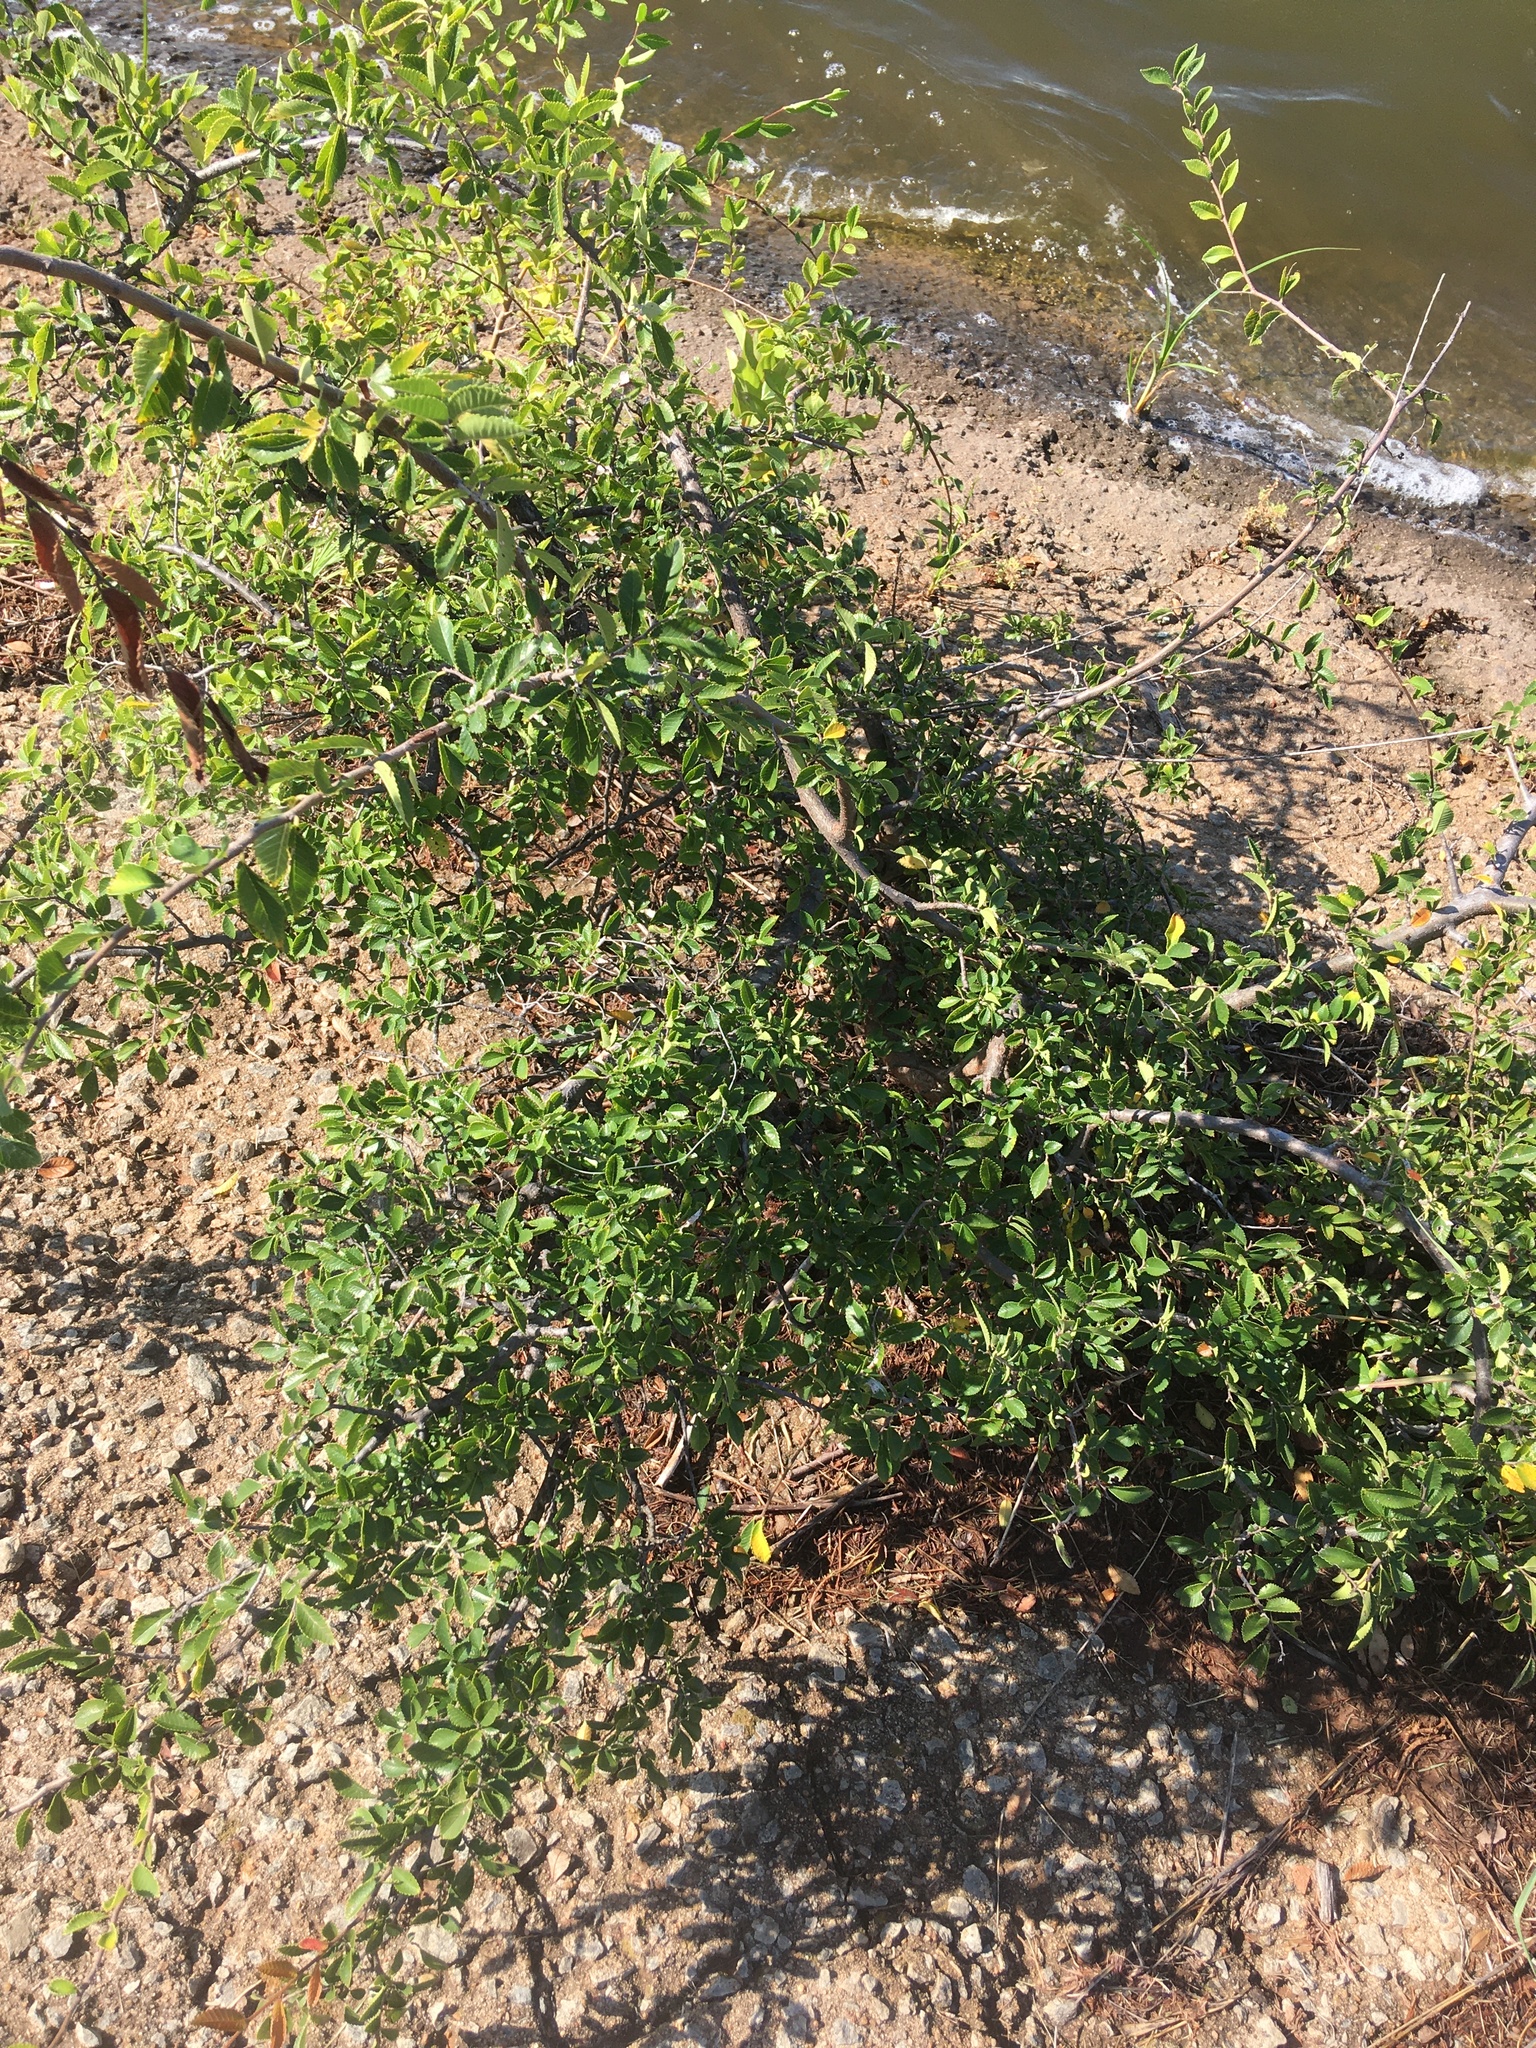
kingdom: Plantae
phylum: Tracheophyta
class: Magnoliopsida
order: Rosales
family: Ulmaceae
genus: Ulmus
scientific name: Ulmus alata
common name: Winged elm
